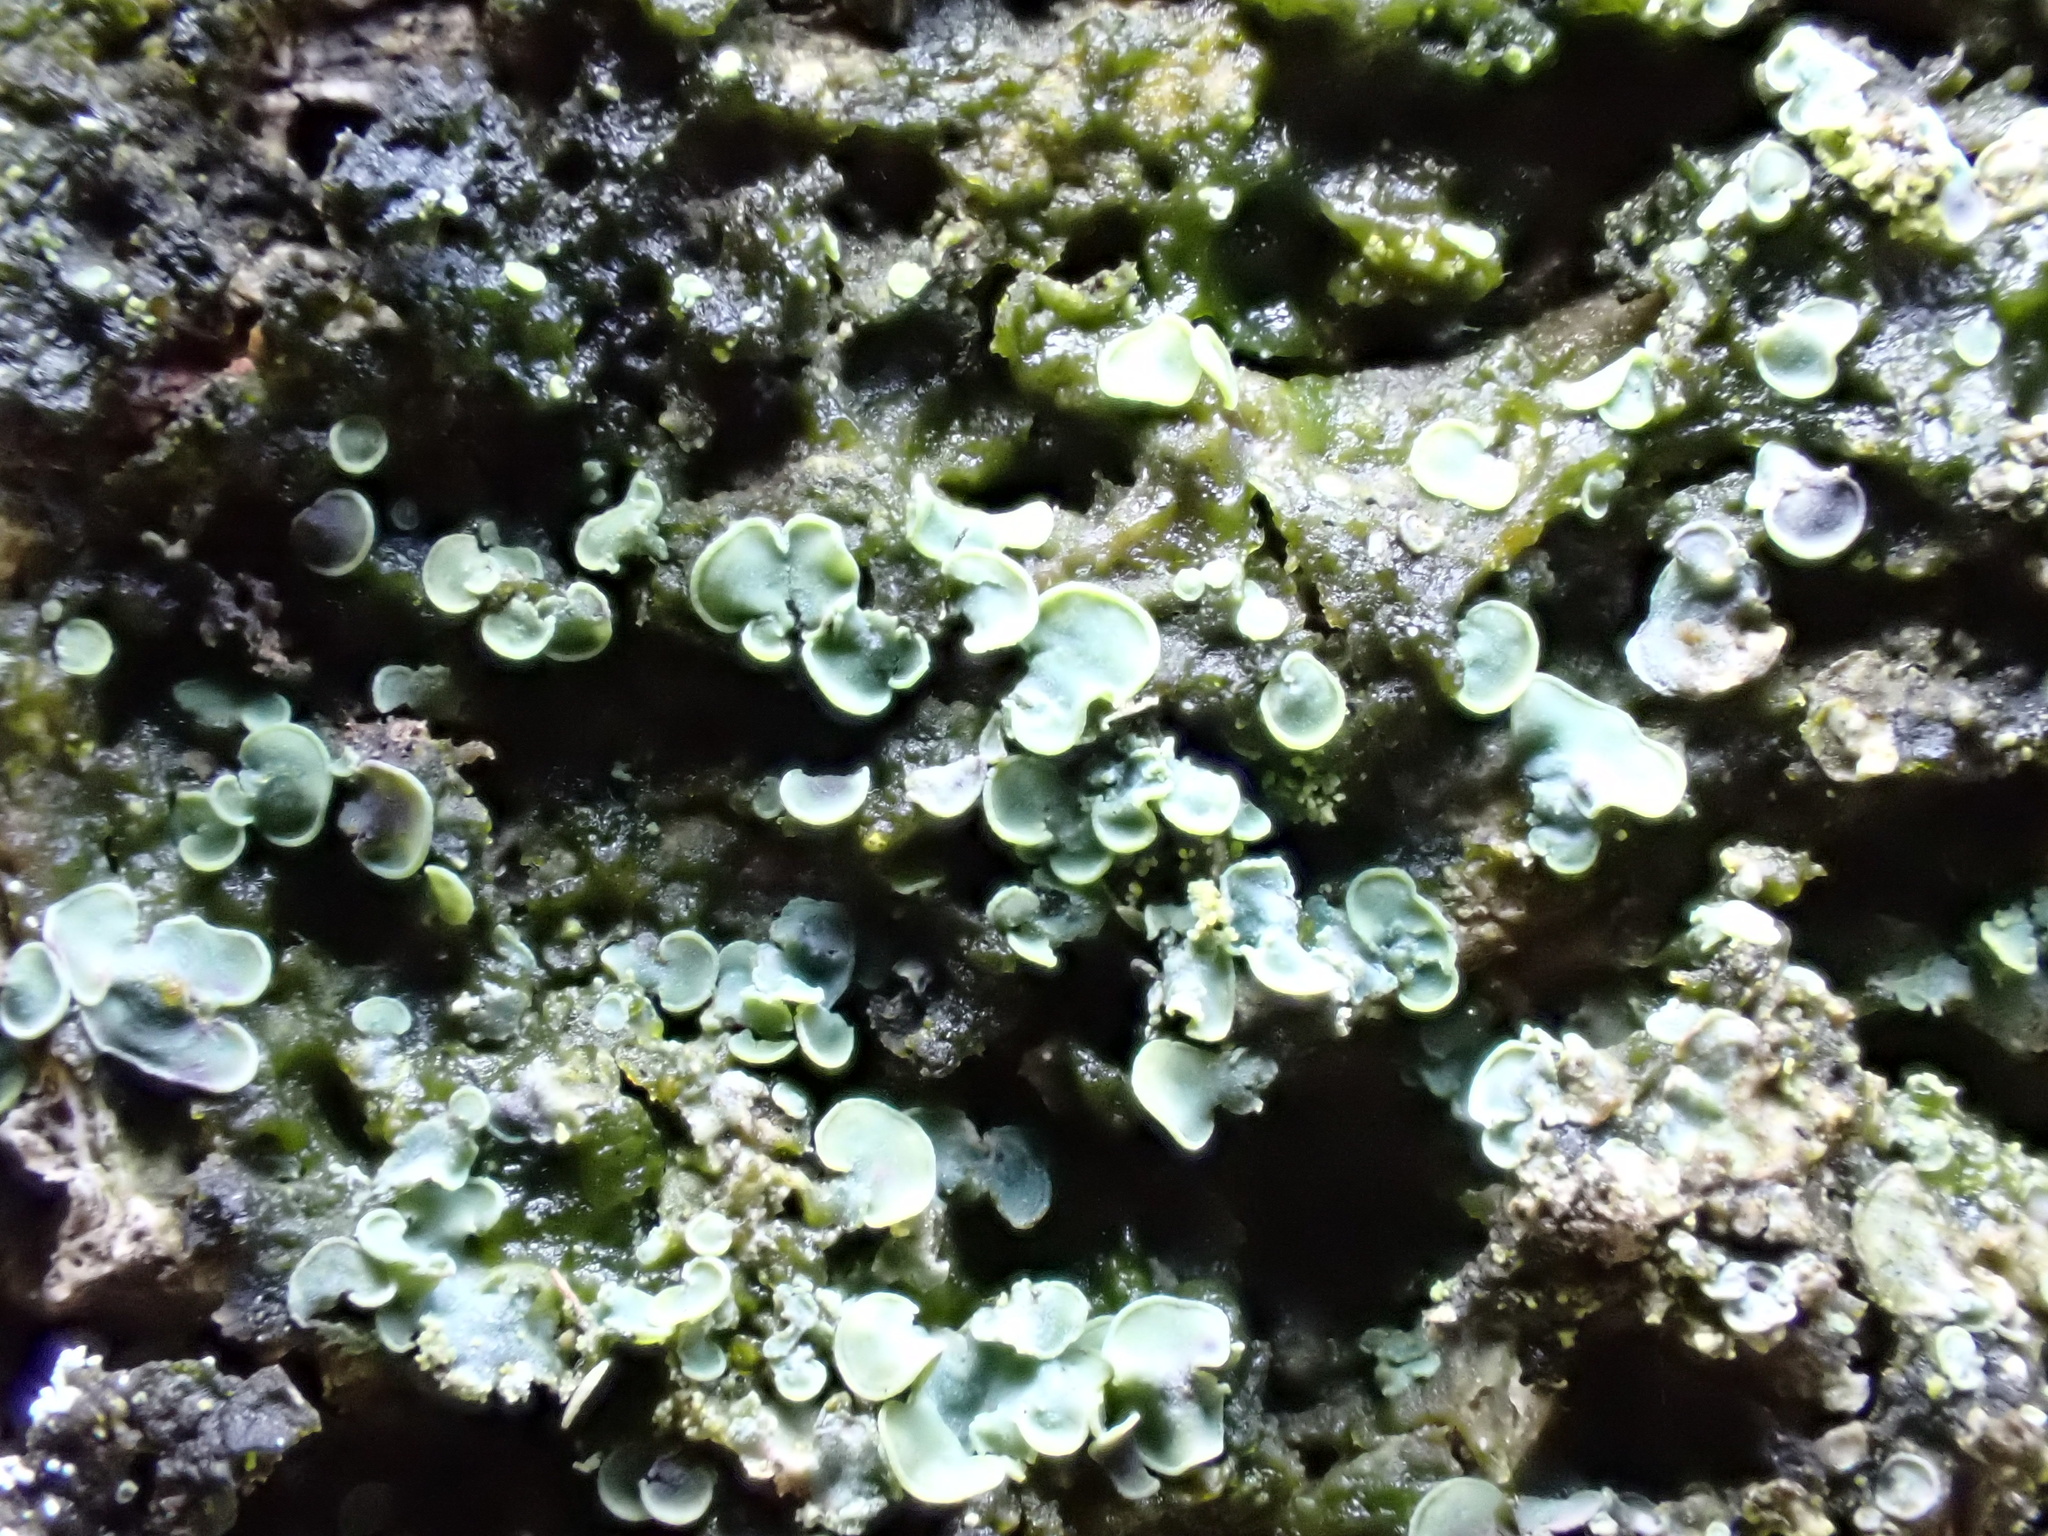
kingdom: Fungi
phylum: Ascomycota
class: Eurotiomycetes
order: Verrucariales
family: Verrucariaceae
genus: Normandina
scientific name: Normandina pulchella
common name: Elf ears lichen
